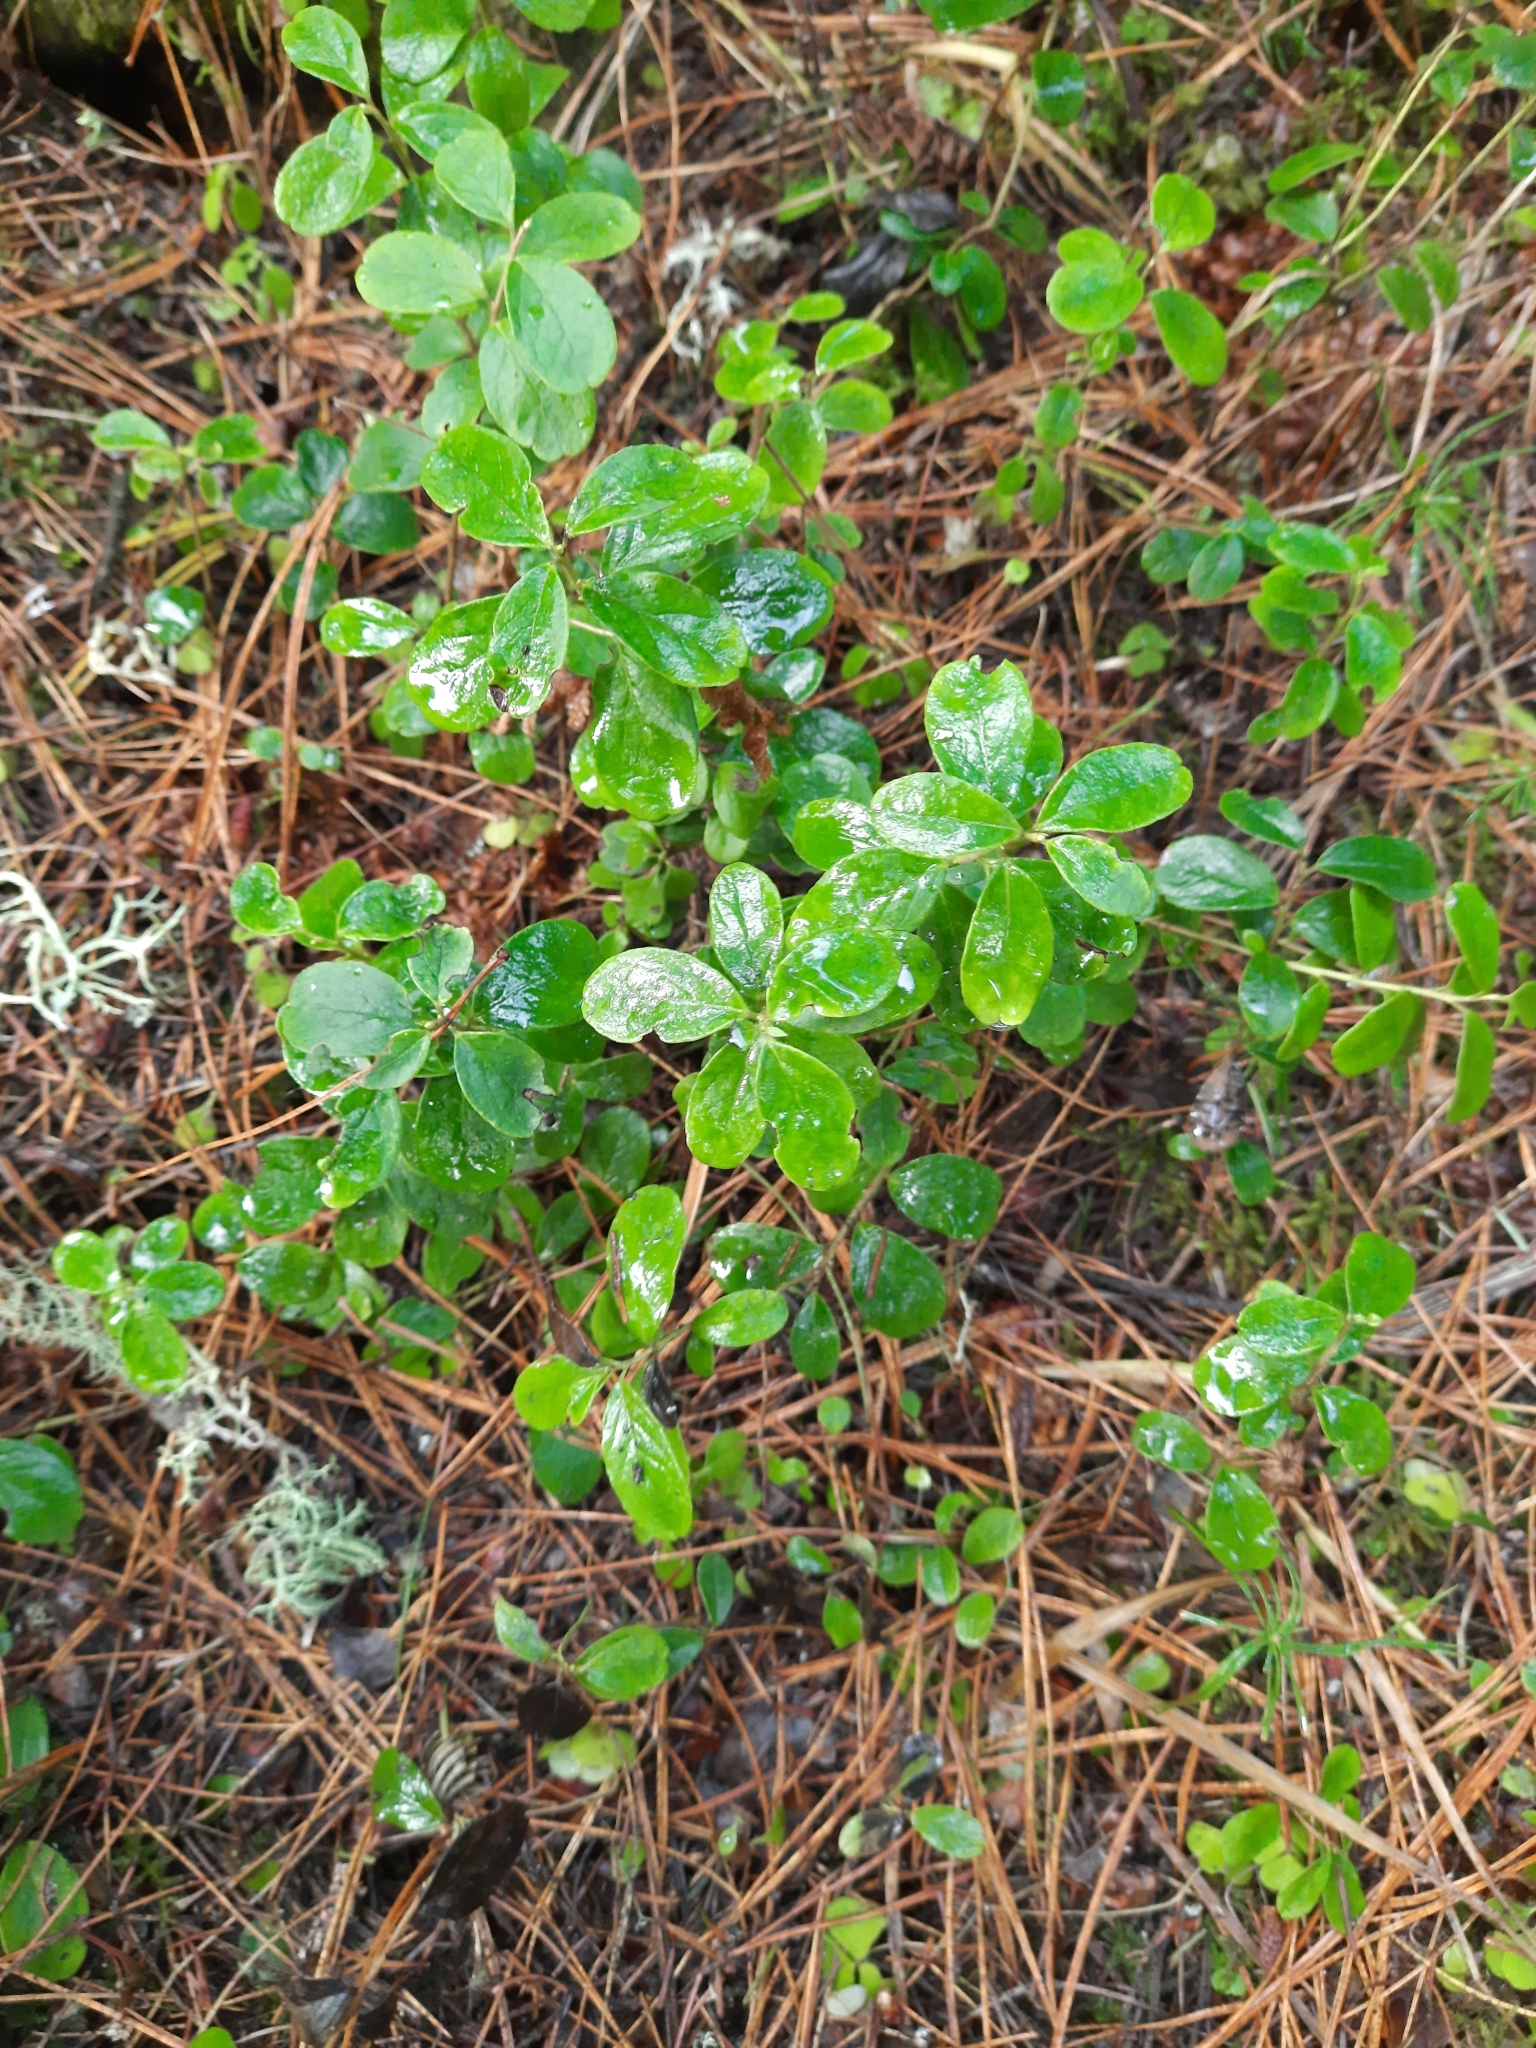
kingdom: Plantae
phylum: Tracheophyta
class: Magnoliopsida
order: Ericales
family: Ericaceae
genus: Vaccinium
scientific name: Vaccinium vitis-idaea
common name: Cowberry
